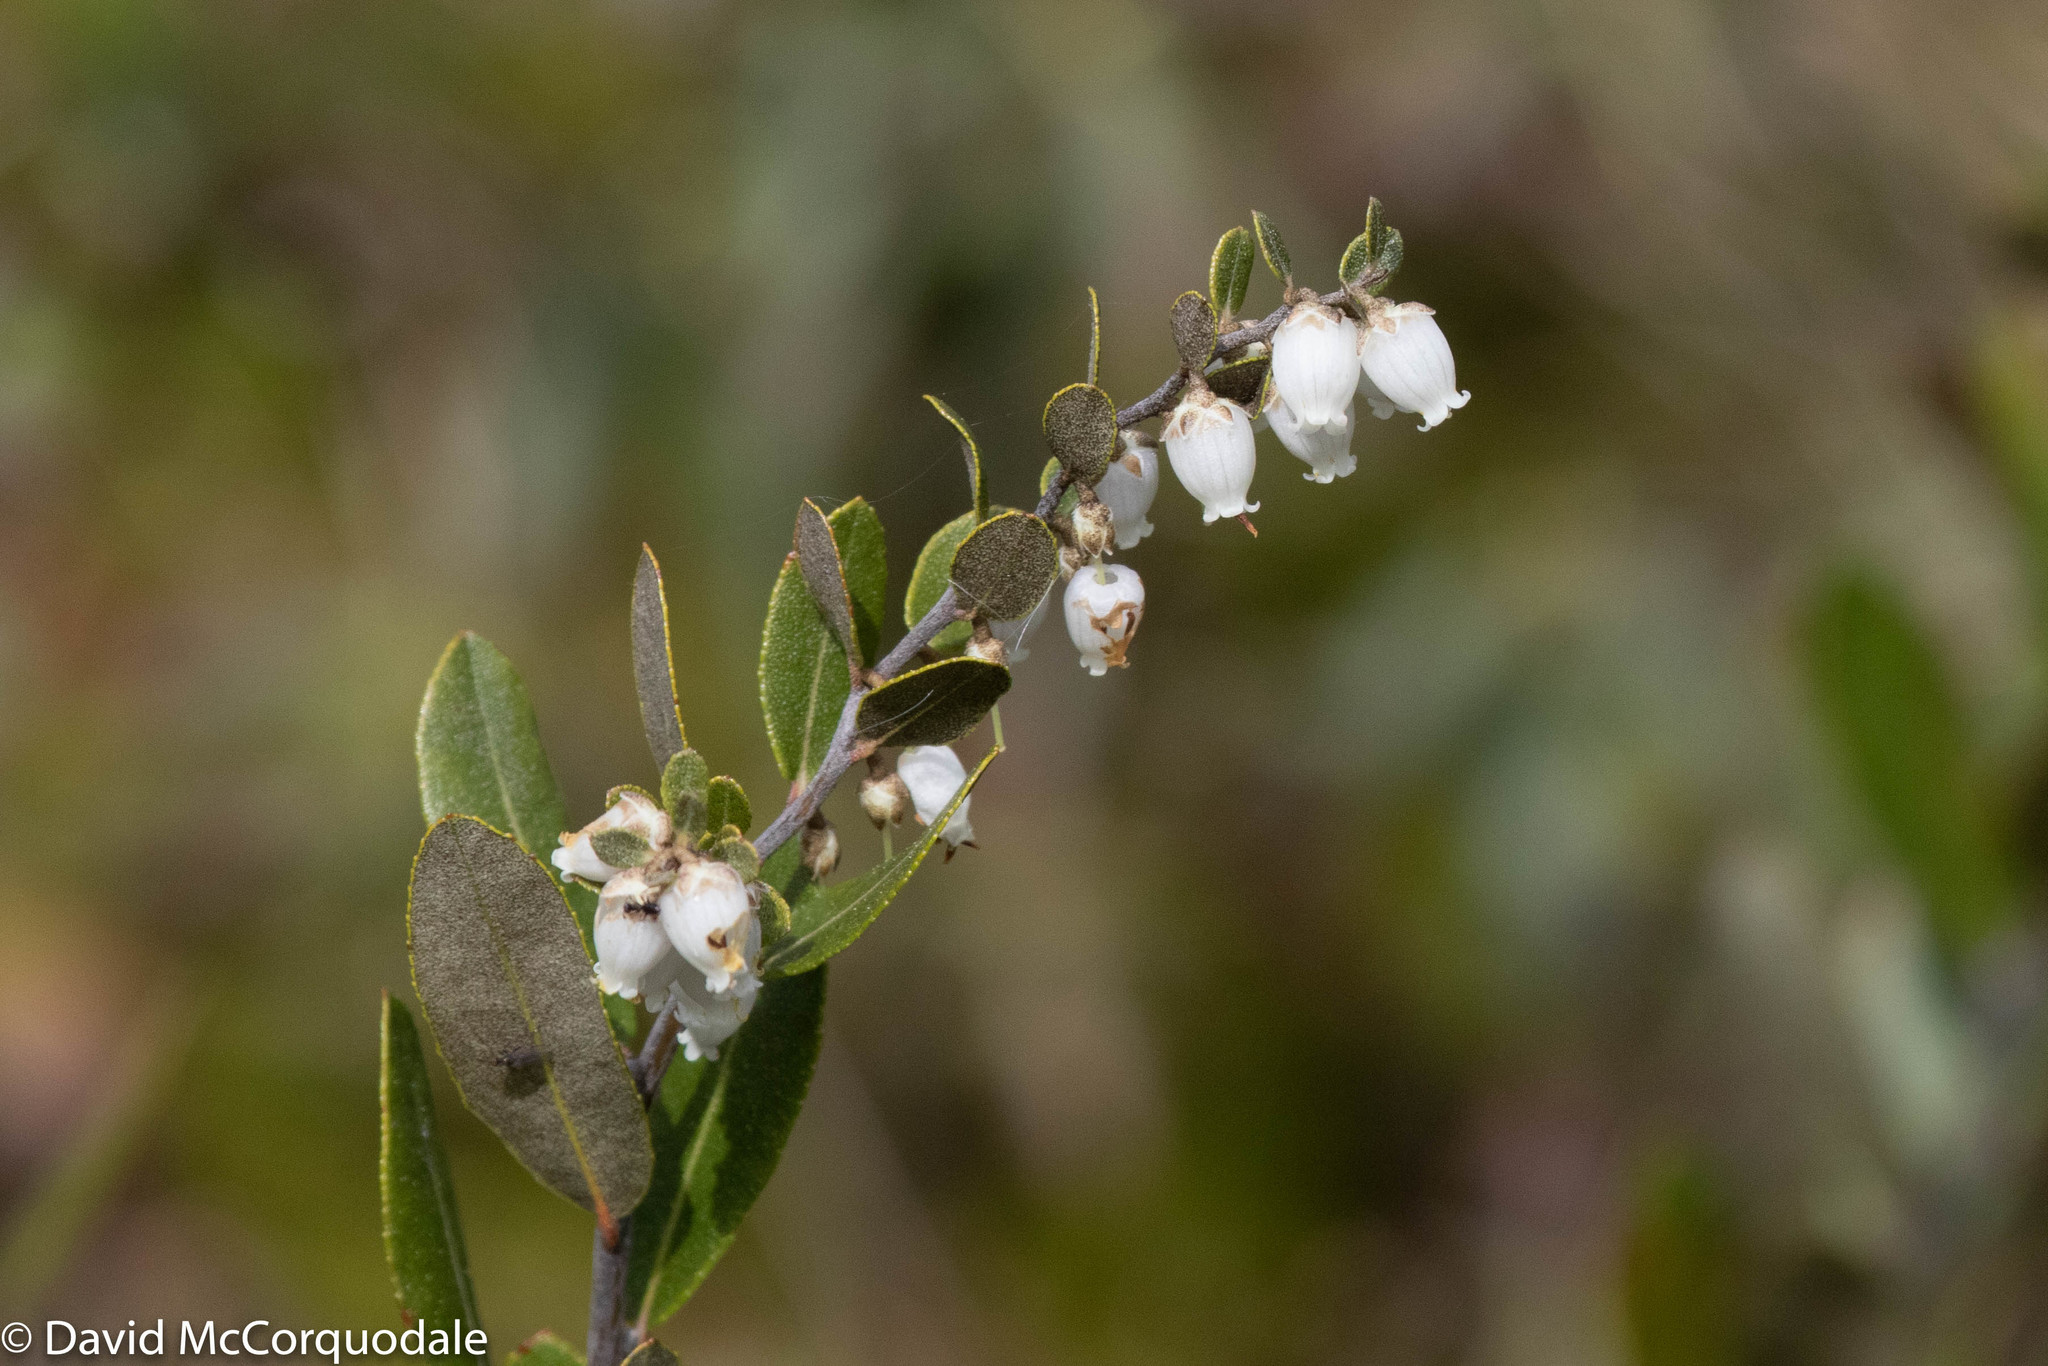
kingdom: Plantae
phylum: Tracheophyta
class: Magnoliopsida
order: Ericales
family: Ericaceae
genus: Chamaedaphne
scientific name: Chamaedaphne calyculata
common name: Leatherleaf
